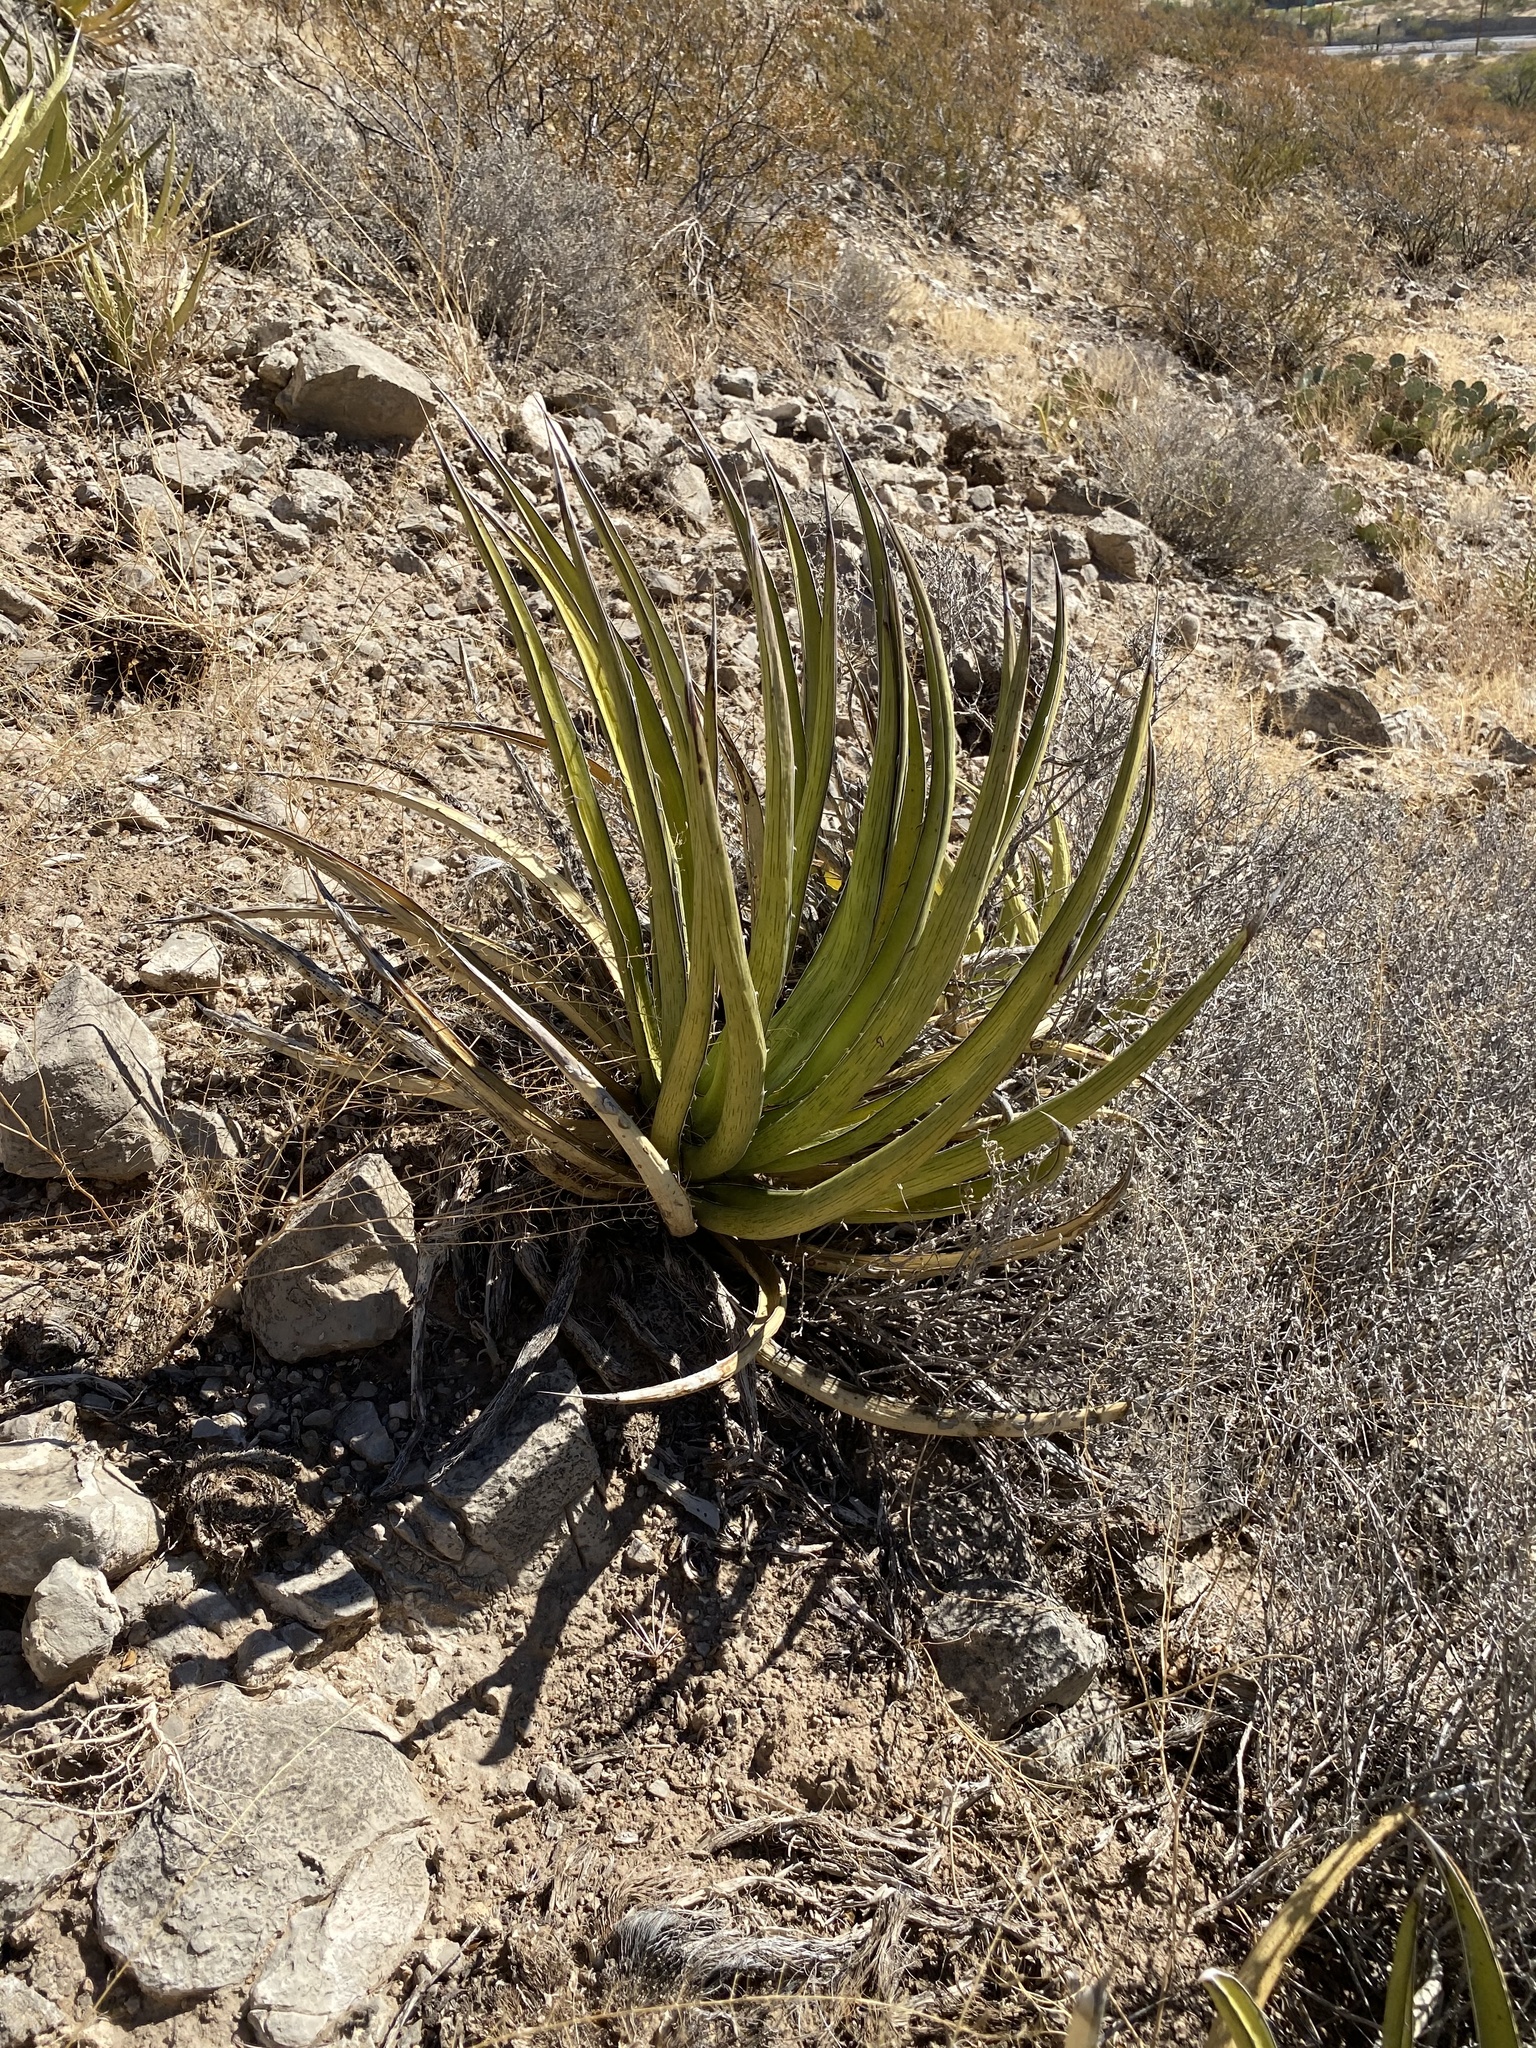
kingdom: Plantae
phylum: Tracheophyta
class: Liliopsida
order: Asparagales
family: Asparagaceae
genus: Agave
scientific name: Agave lechuguilla
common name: Lecheguilla agave
